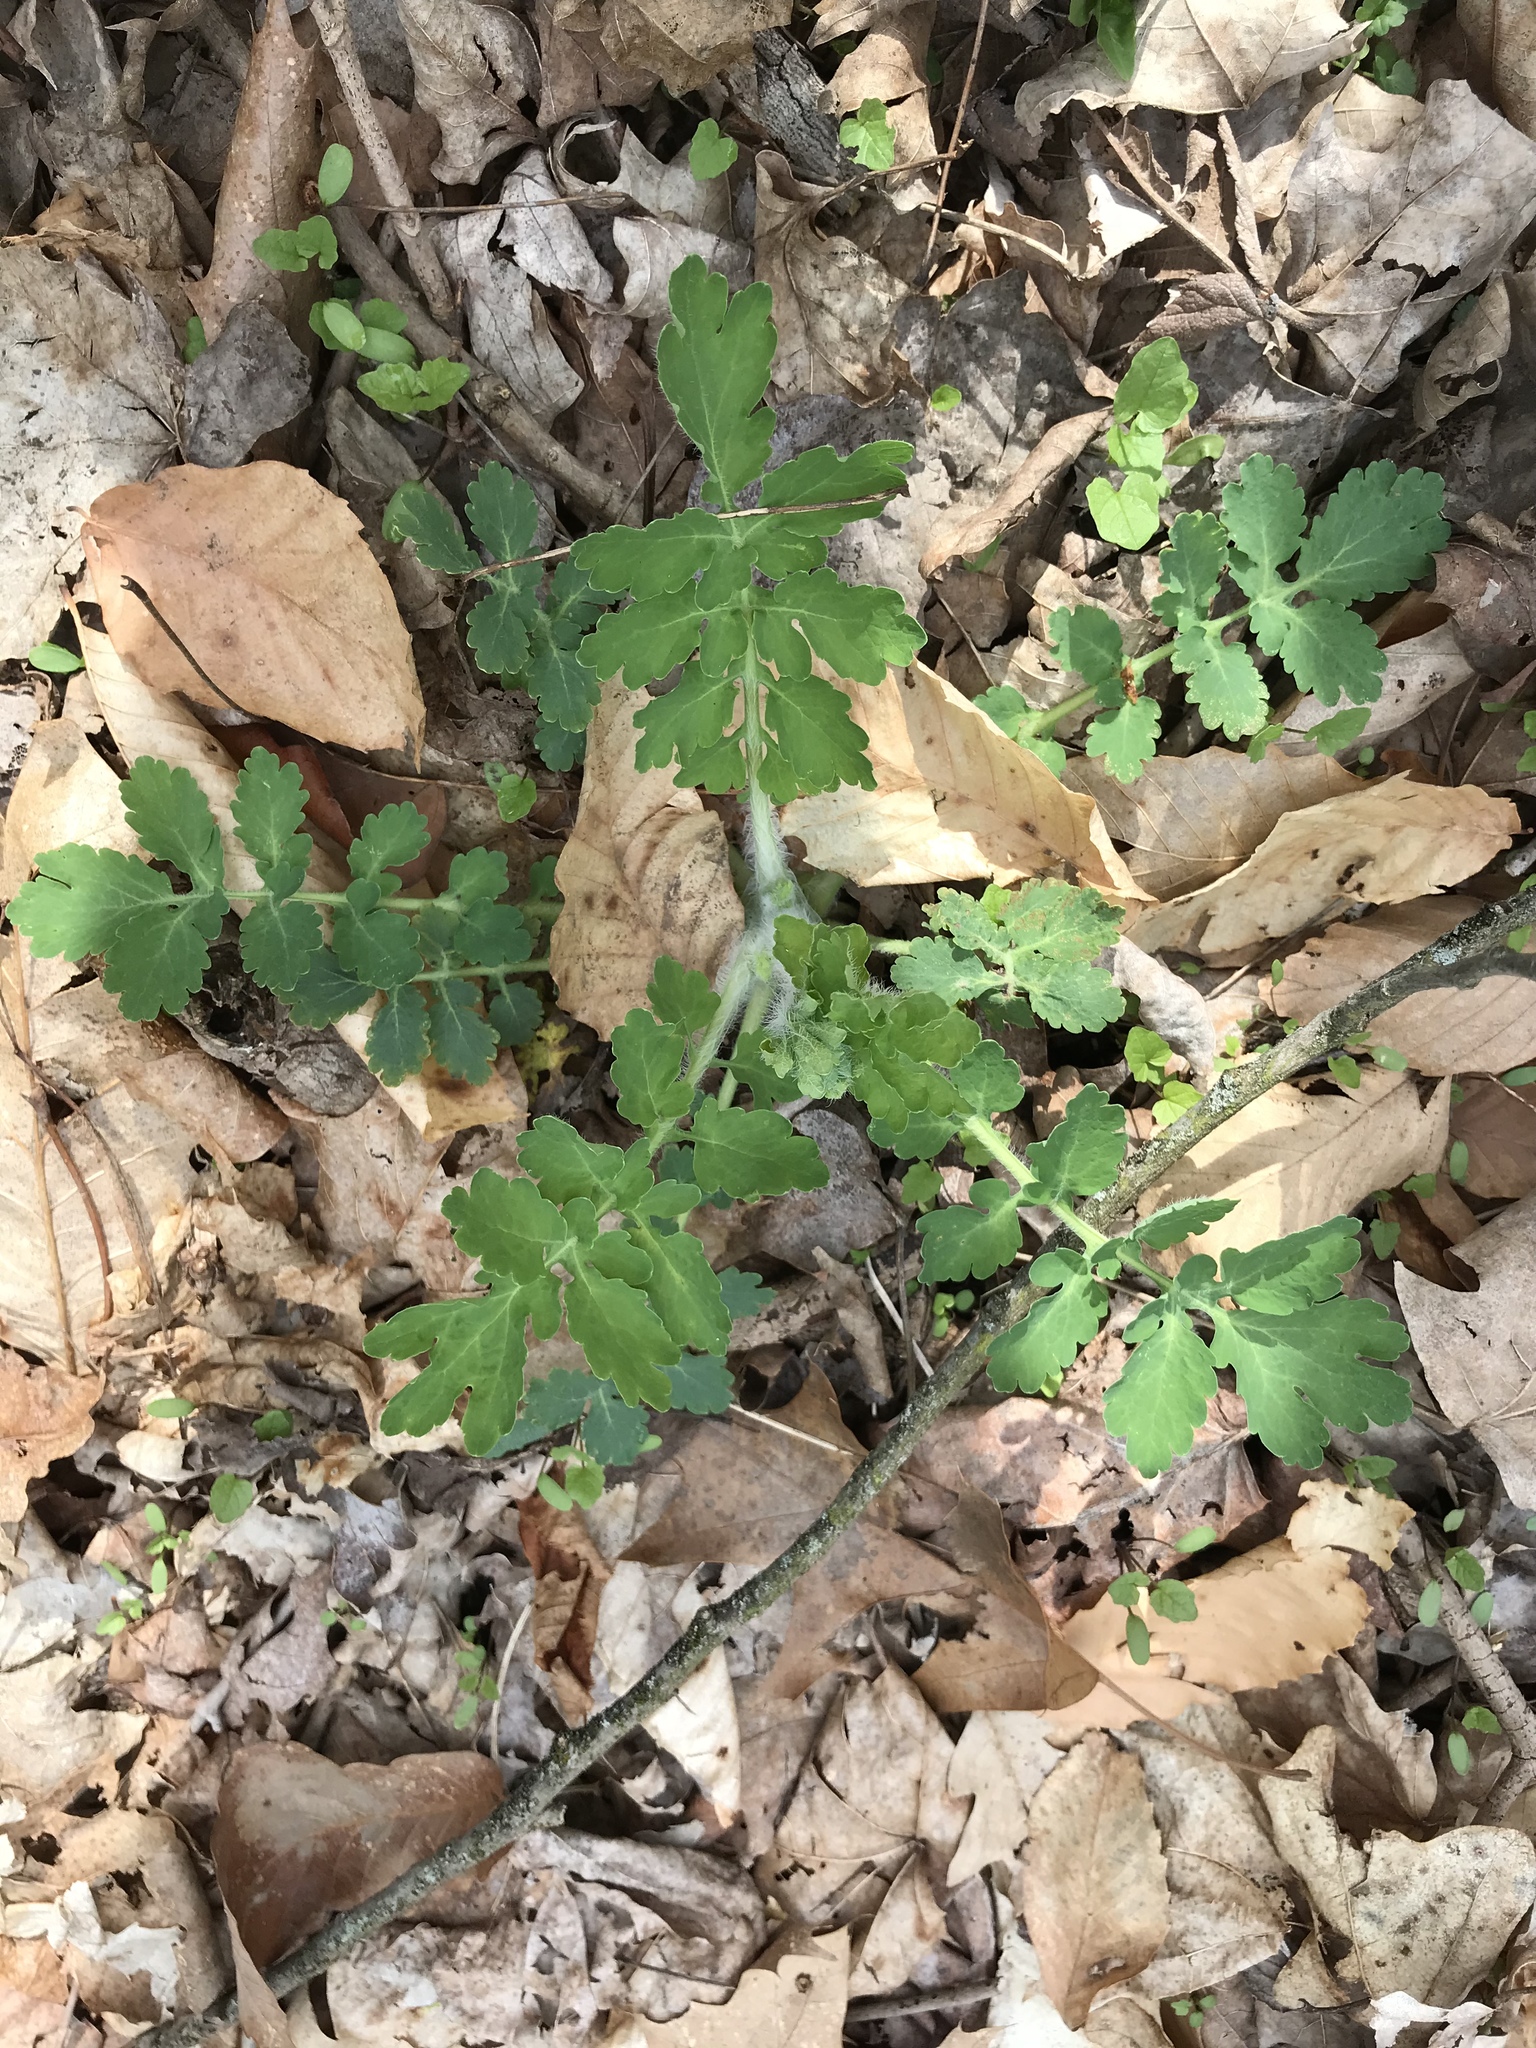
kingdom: Plantae
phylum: Tracheophyta
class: Magnoliopsida
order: Ranunculales
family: Papaveraceae
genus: Chelidonium
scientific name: Chelidonium majus
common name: Greater celandine
